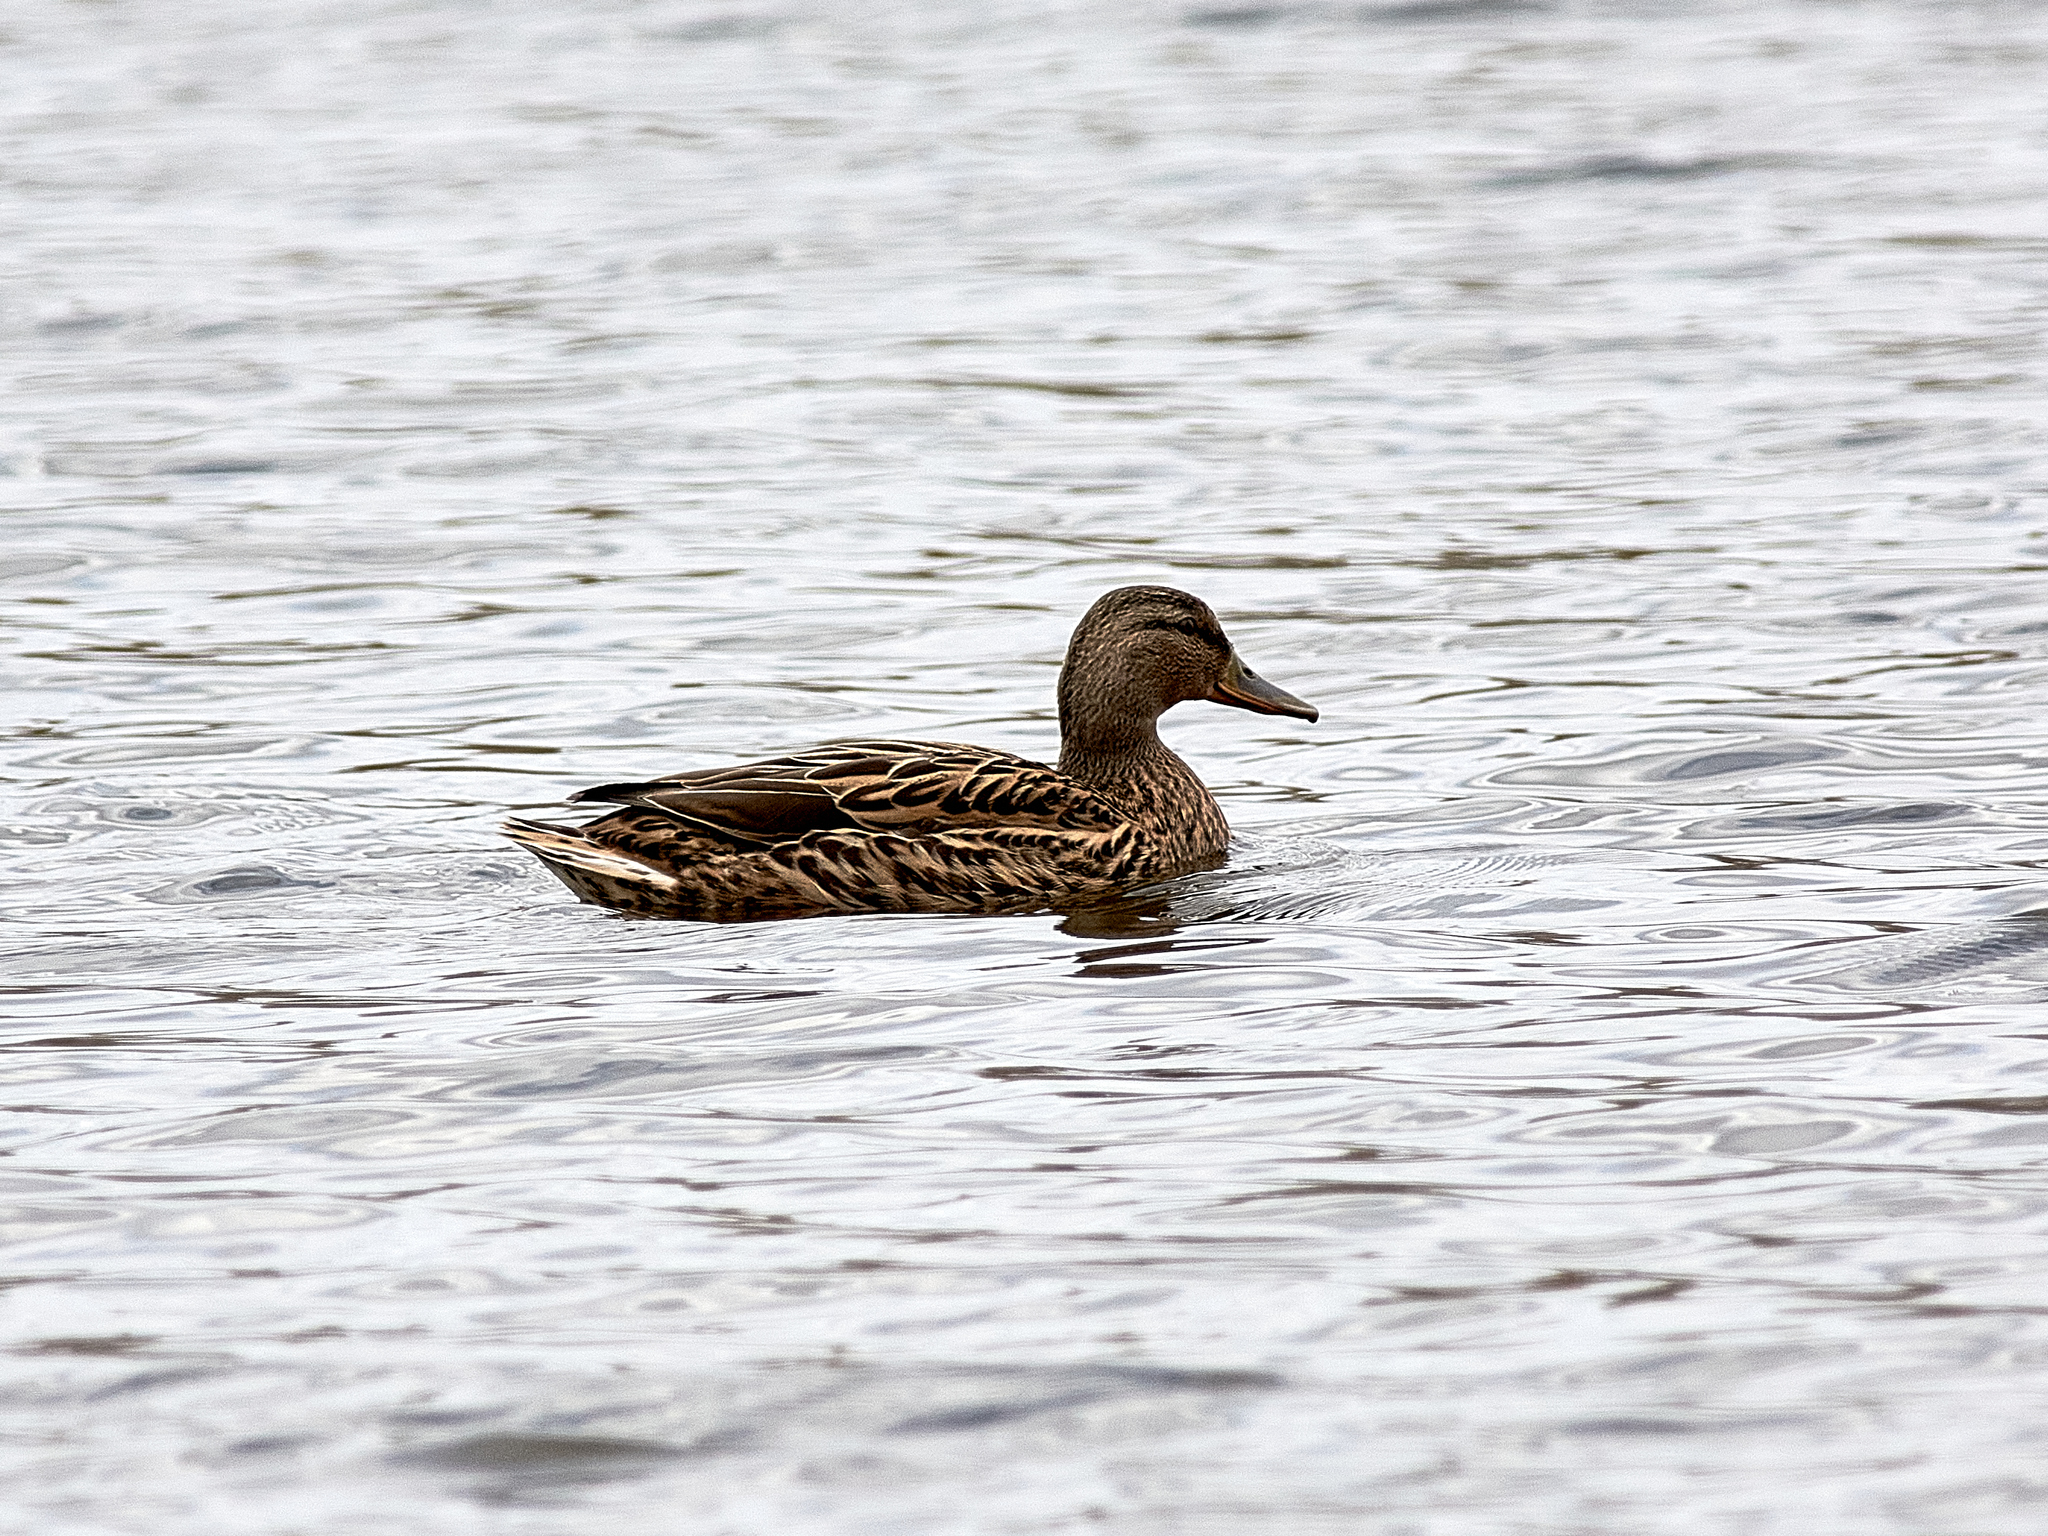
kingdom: Animalia
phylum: Chordata
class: Aves
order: Anseriformes
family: Anatidae
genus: Anas
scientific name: Anas platyrhynchos
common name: Mallard
